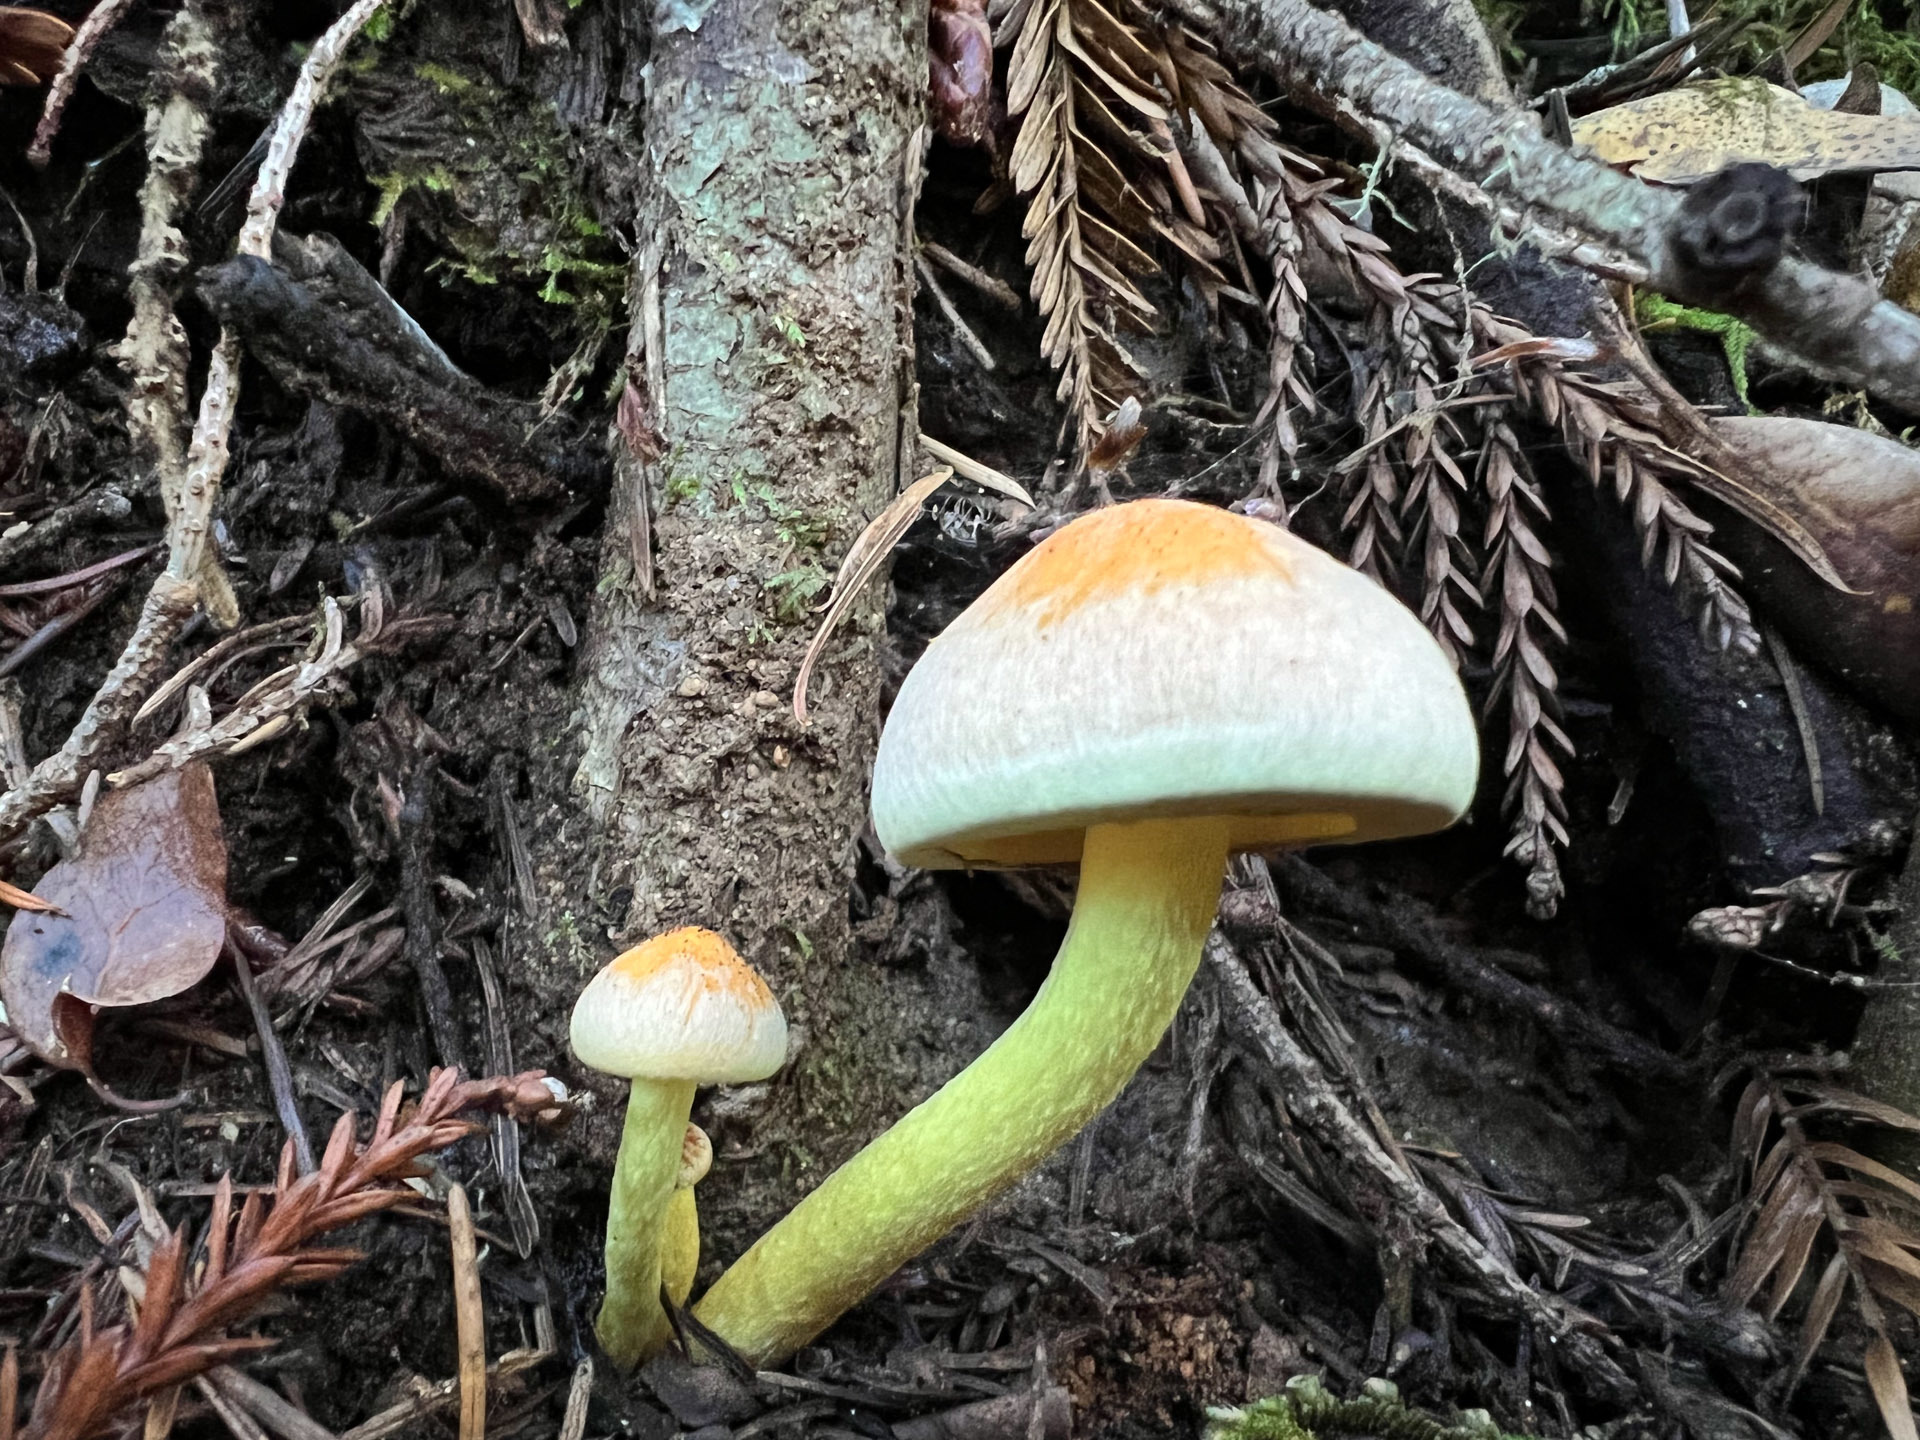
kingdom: Fungi
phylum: Basidiomycota
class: Agaricomycetes
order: Agaricales
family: Strophariaceae
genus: Hypholoma
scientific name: Hypholoma capnoides
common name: Conifer tuft
